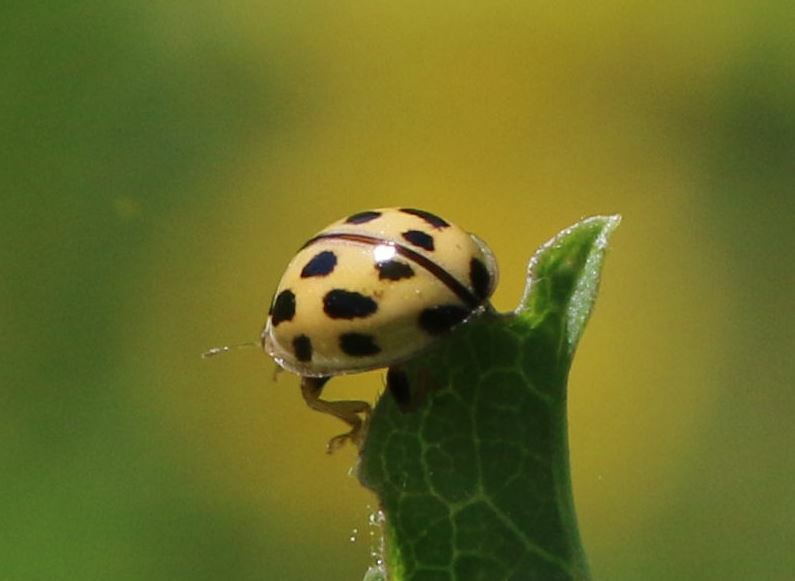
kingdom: Animalia
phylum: Arthropoda
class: Insecta
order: Coleoptera
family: Coccinellidae
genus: Propylaea
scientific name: Propylaea quatuordecimpunctata
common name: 14-spotted ladybird beetle
